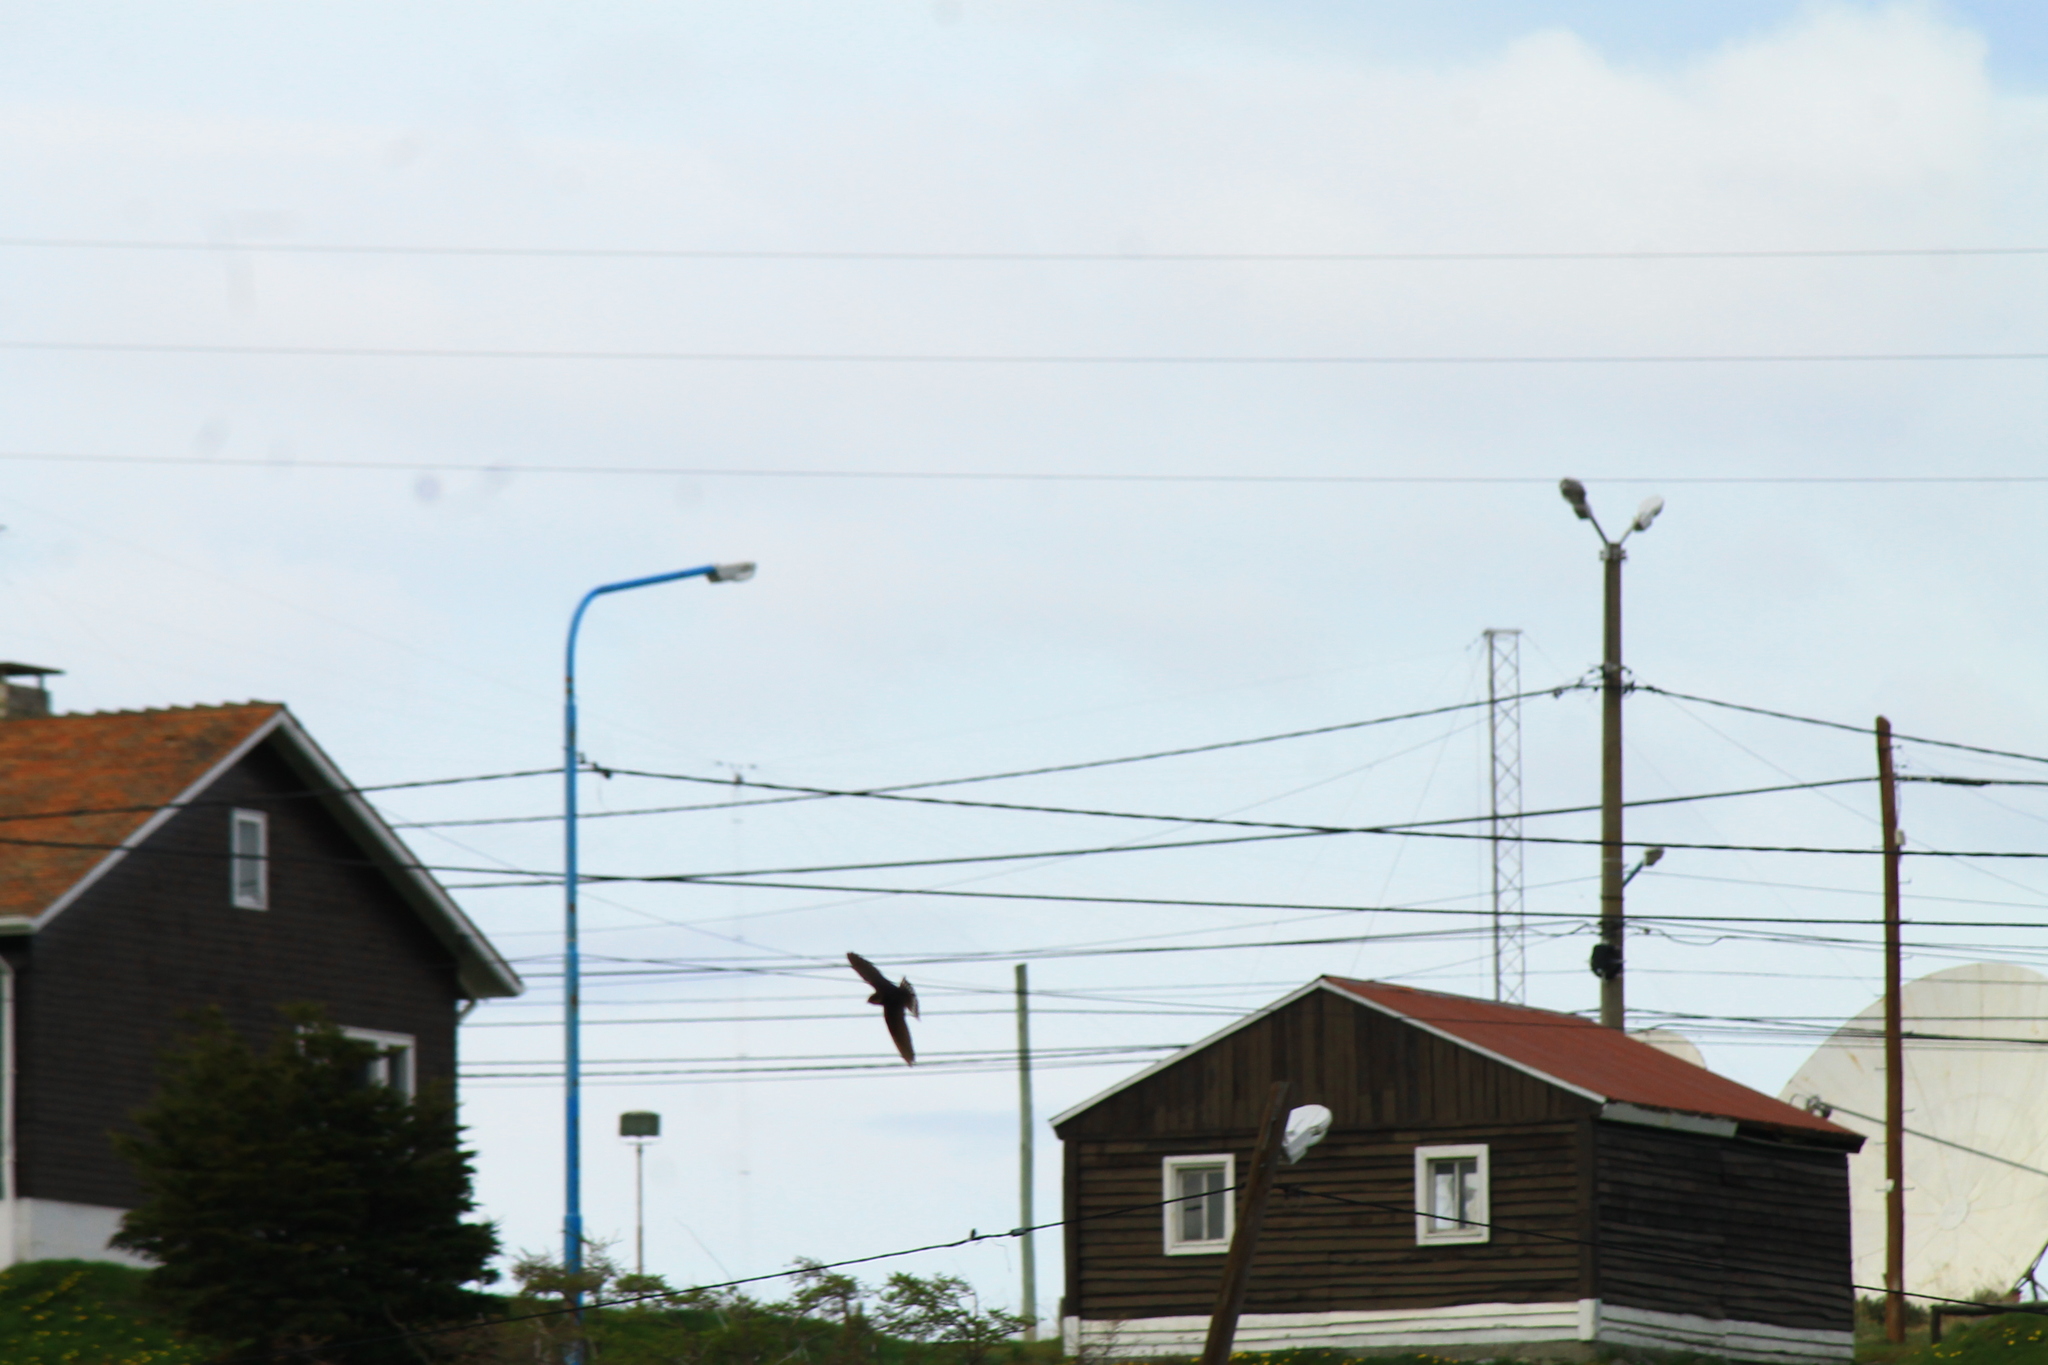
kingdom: Animalia
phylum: Chordata
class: Aves
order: Passeriformes
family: Hirundinidae
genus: Tachycineta
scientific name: Tachycineta leucopyga
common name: Chilean swallow
